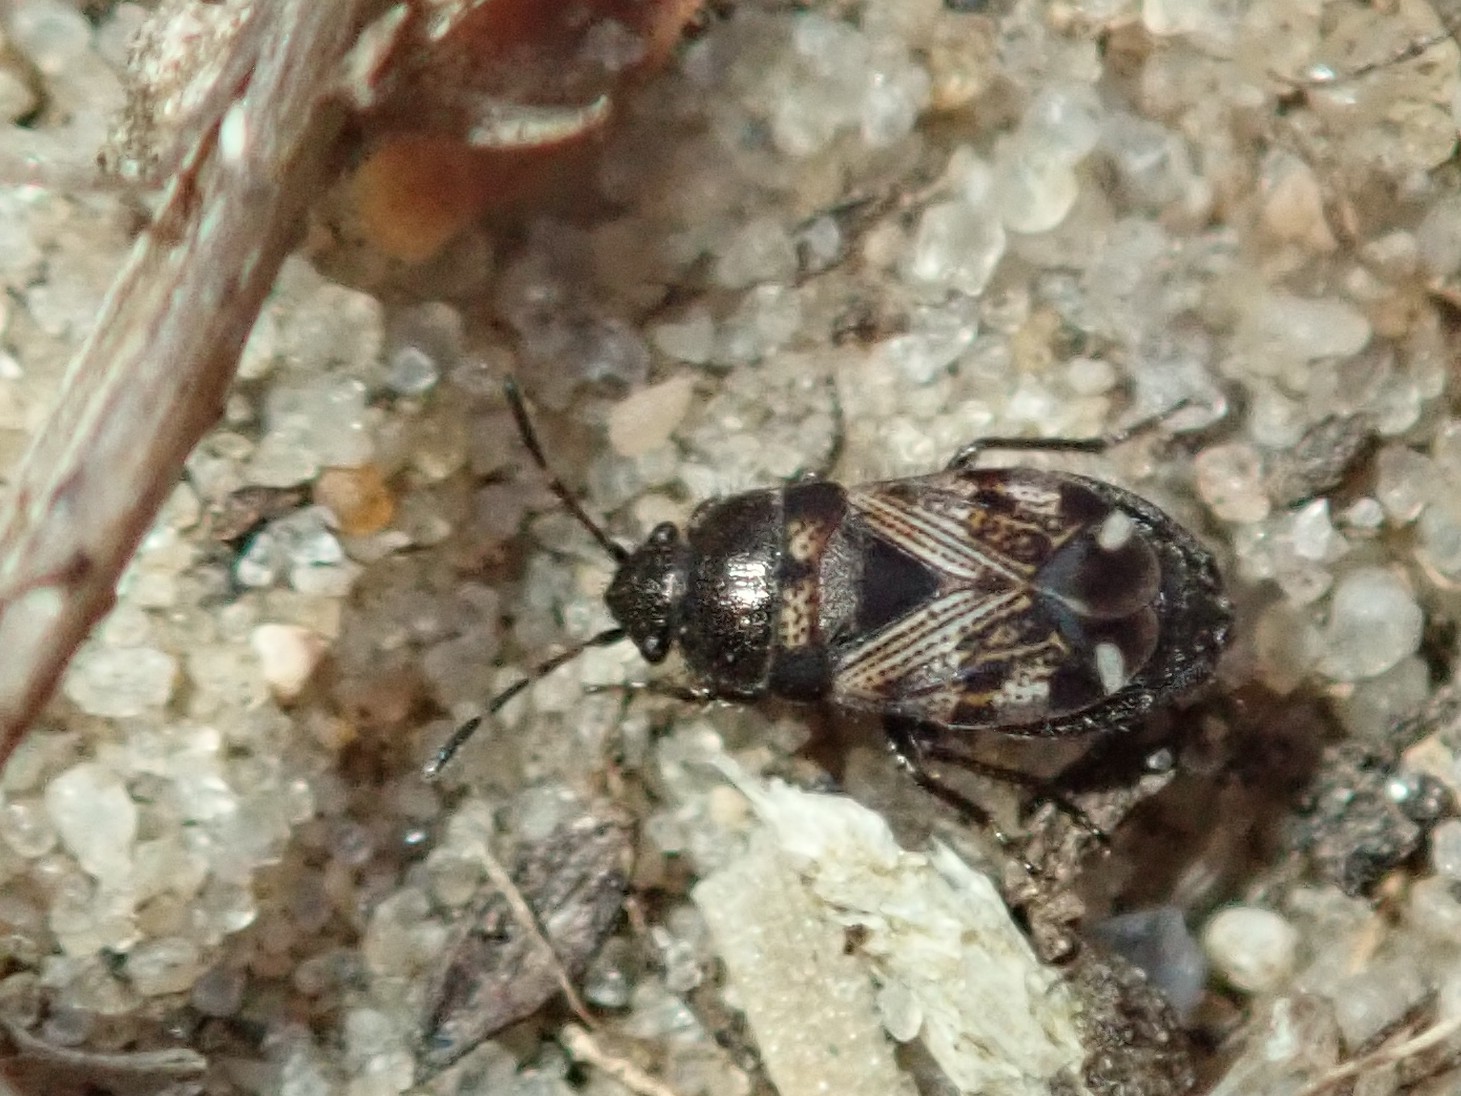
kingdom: Animalia
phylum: Arthropoda
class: Insecta
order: Hemiptera
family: Rhyparochromidae
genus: Pionosomus
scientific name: Pionosomus varius
